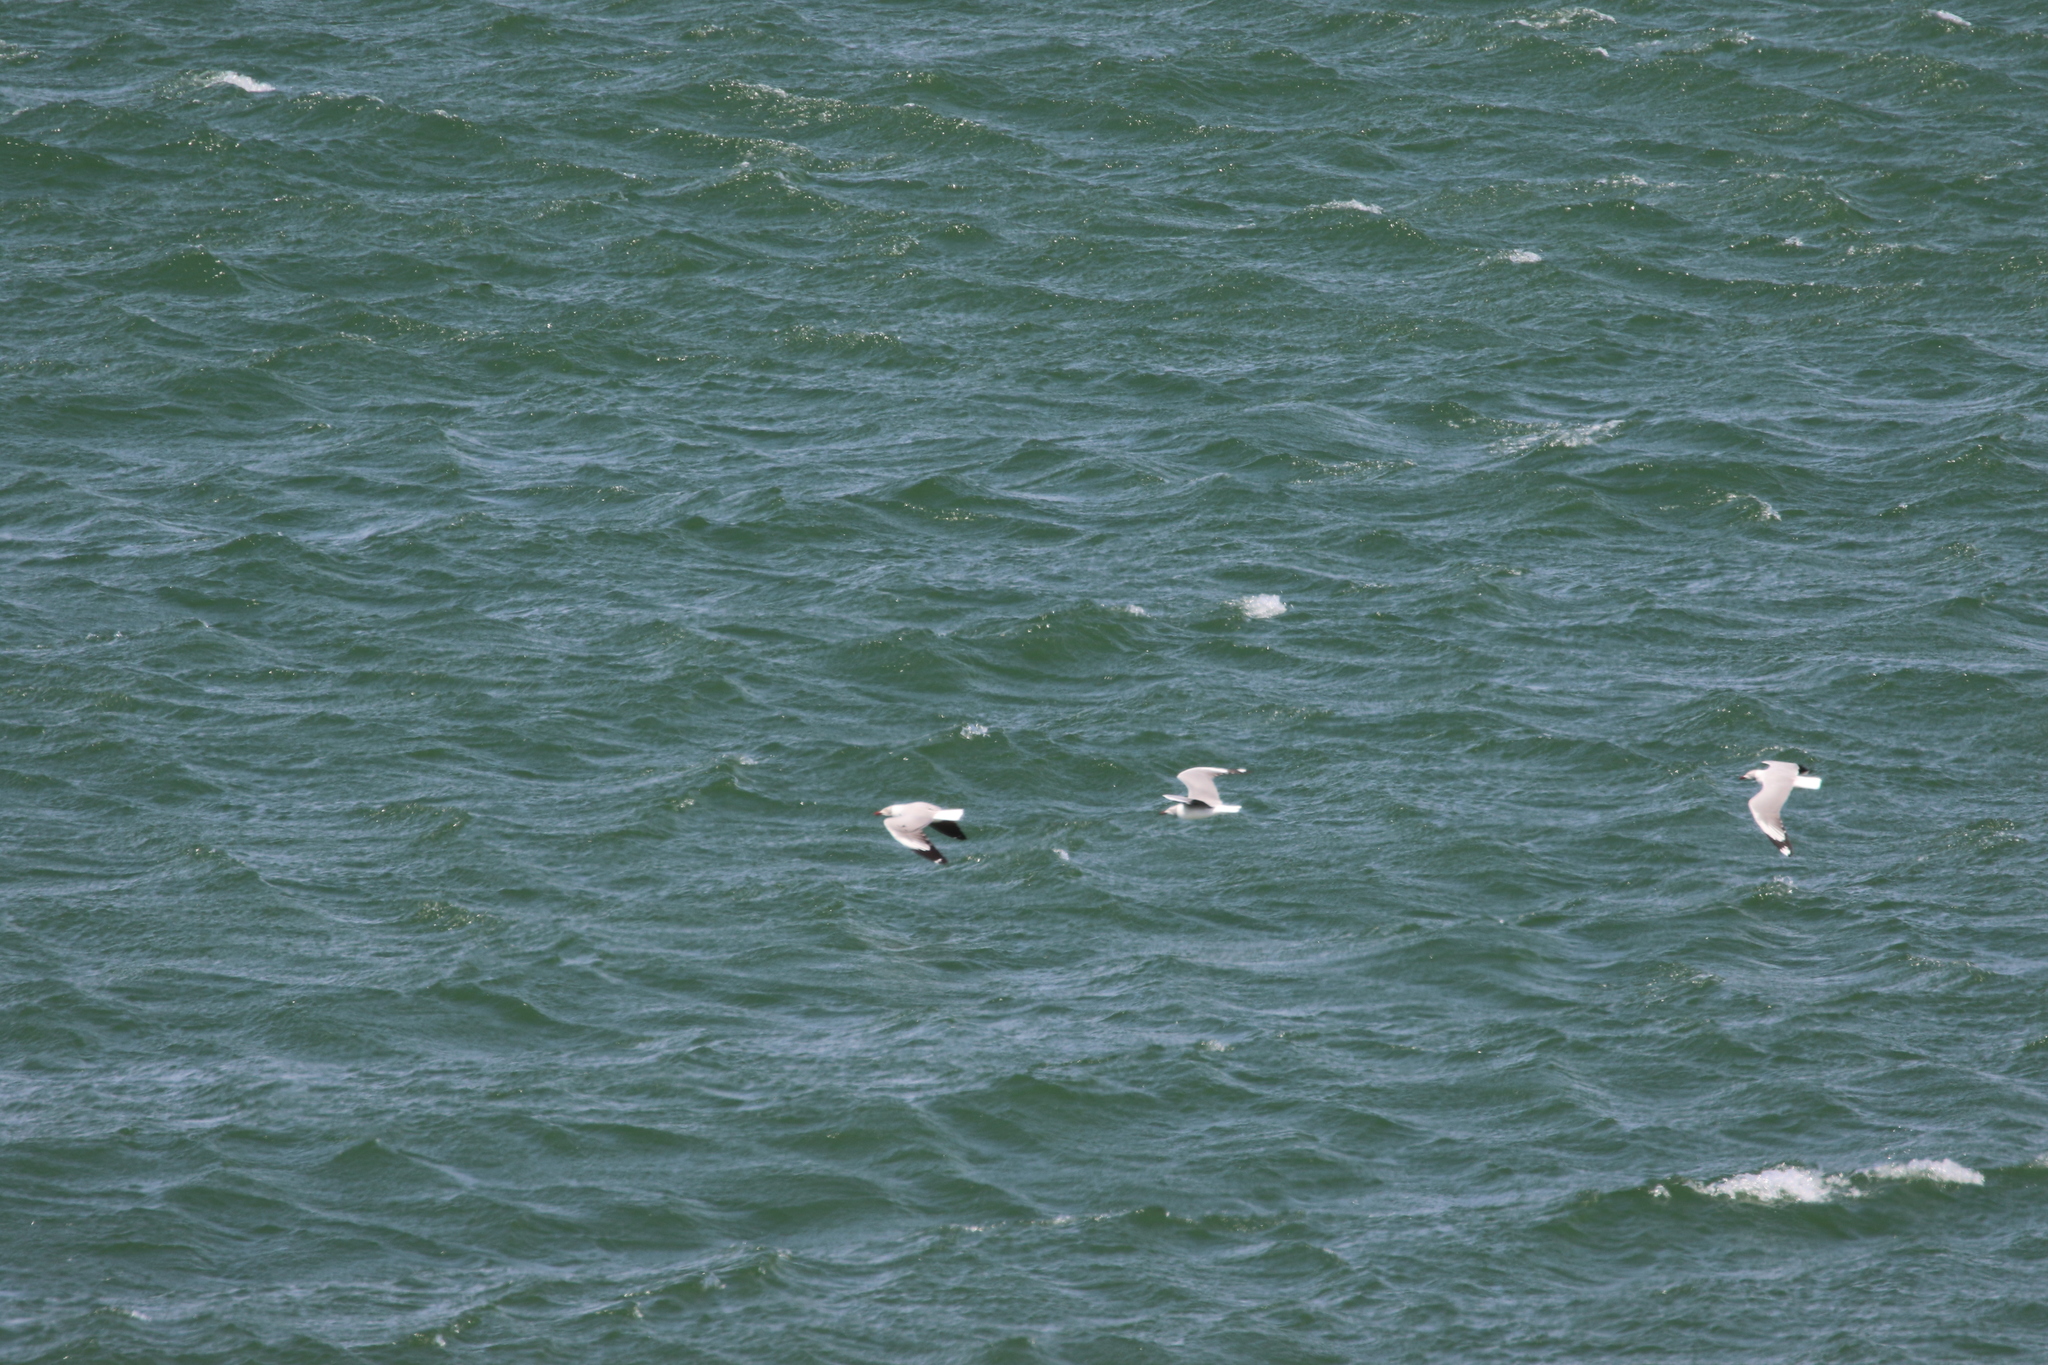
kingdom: Animalia
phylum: Chordata
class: Aves
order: Charadriiformes
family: Laridae
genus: Chroicocephalus
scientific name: Chroicocephalus cirrocephalus
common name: Grey-headed gull
